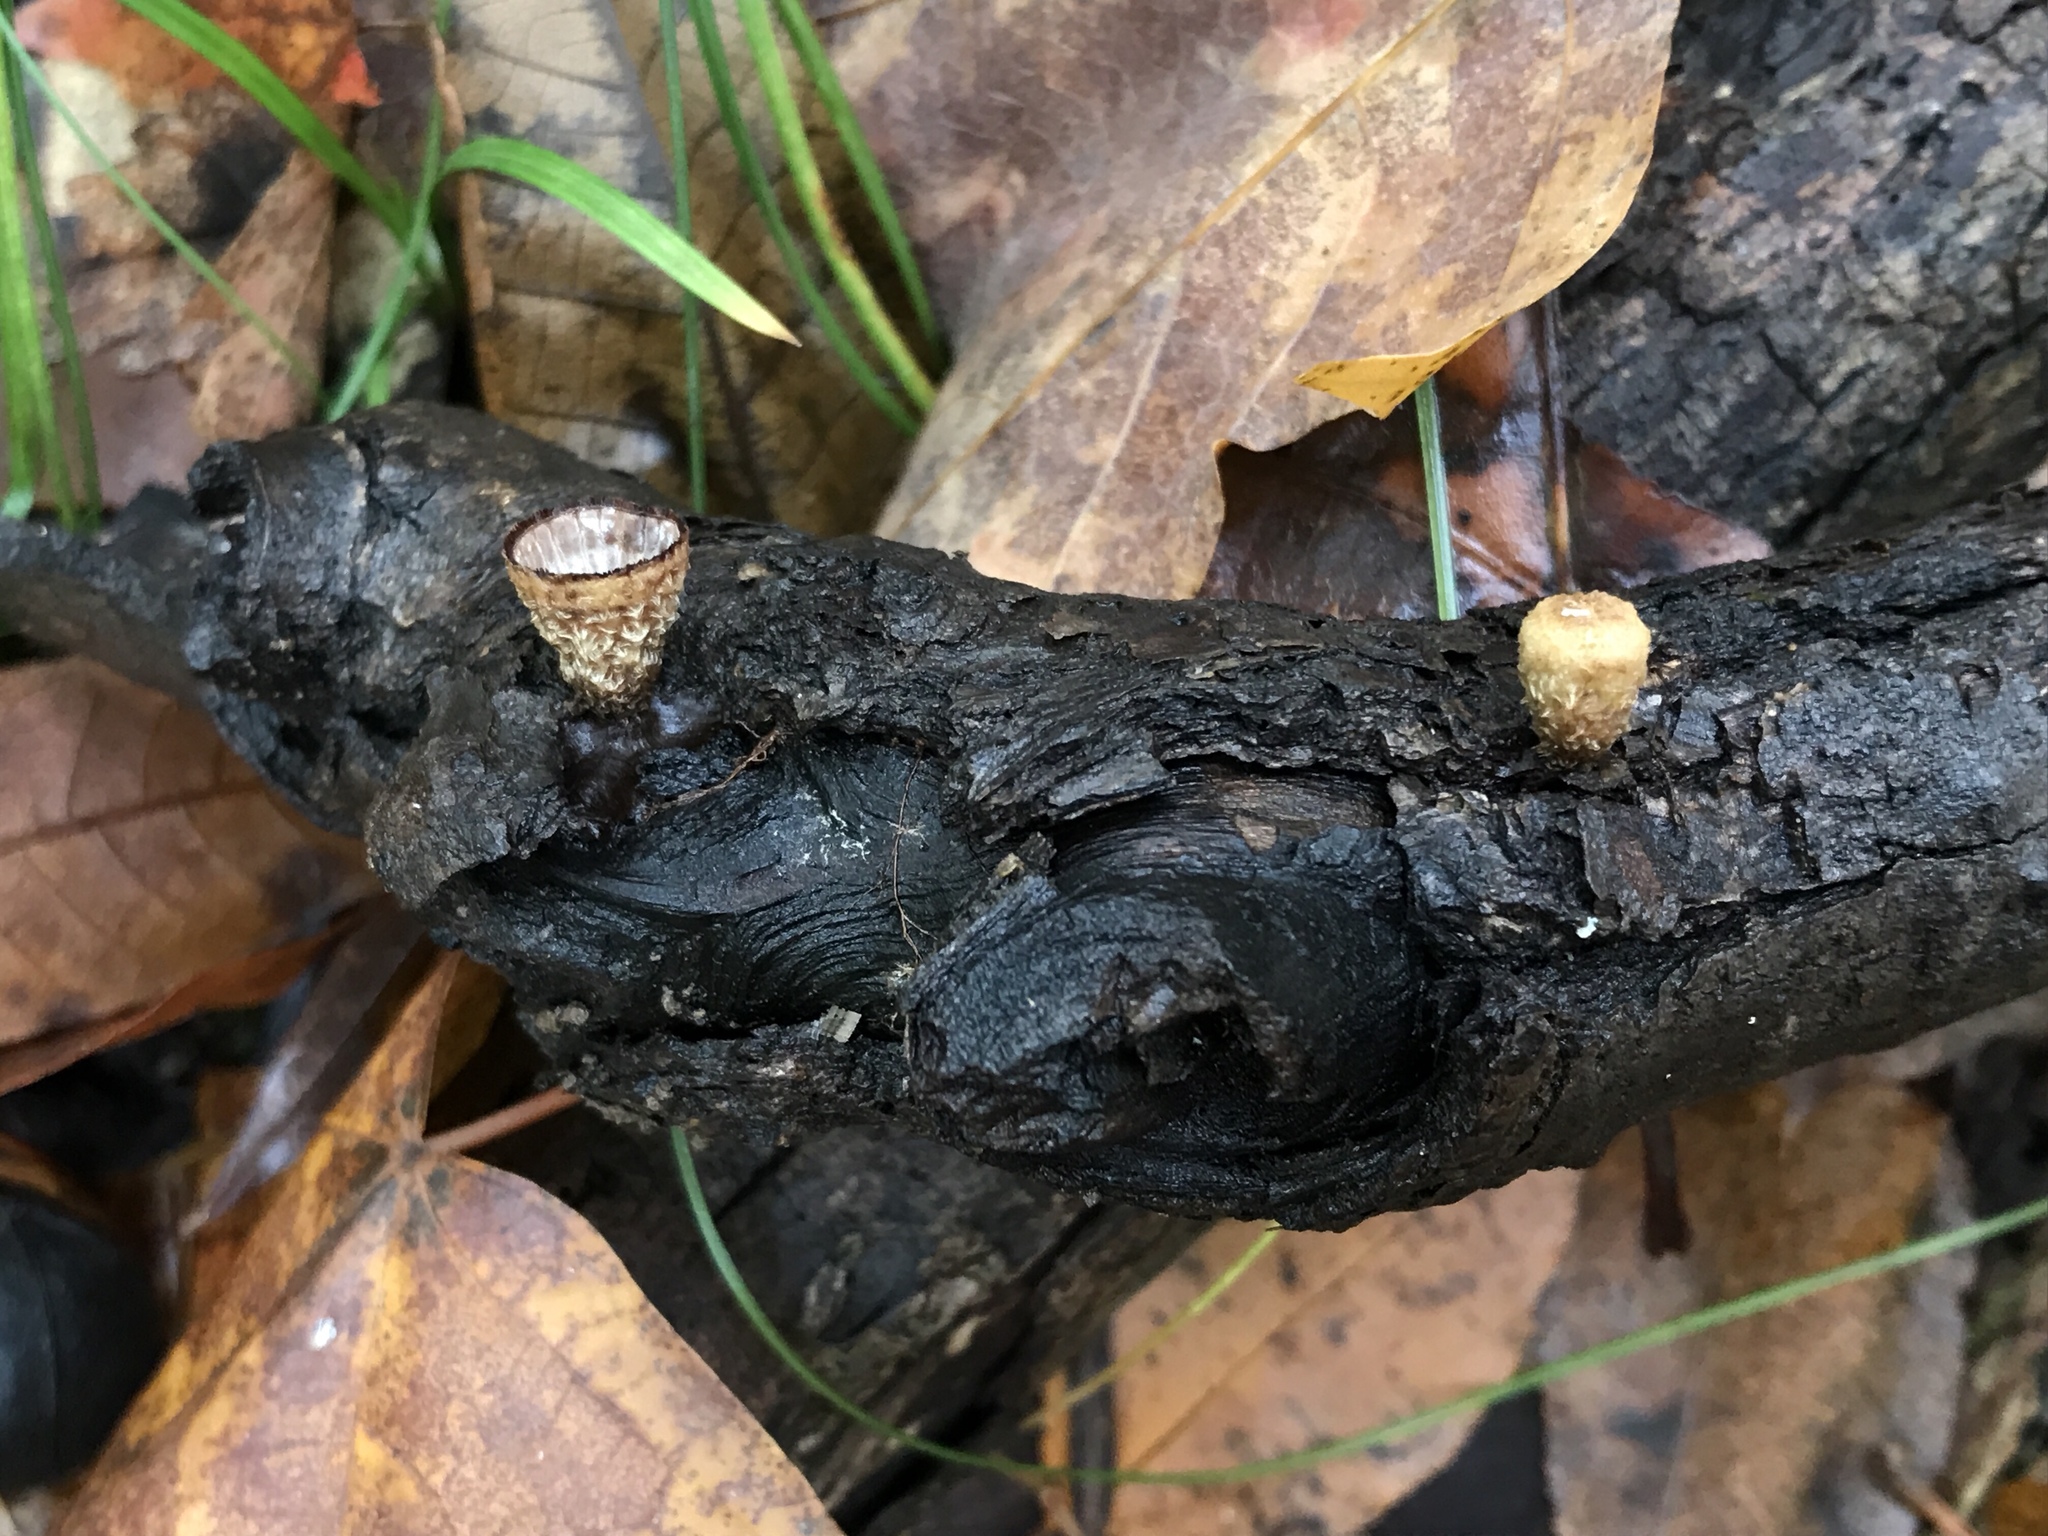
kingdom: Fungi
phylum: Basidiomycota
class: Agaricomycetes
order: Agaricales
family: Agaricaceae
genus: Cyathus
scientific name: Cyathus striatus
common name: Fluted bird's nest
